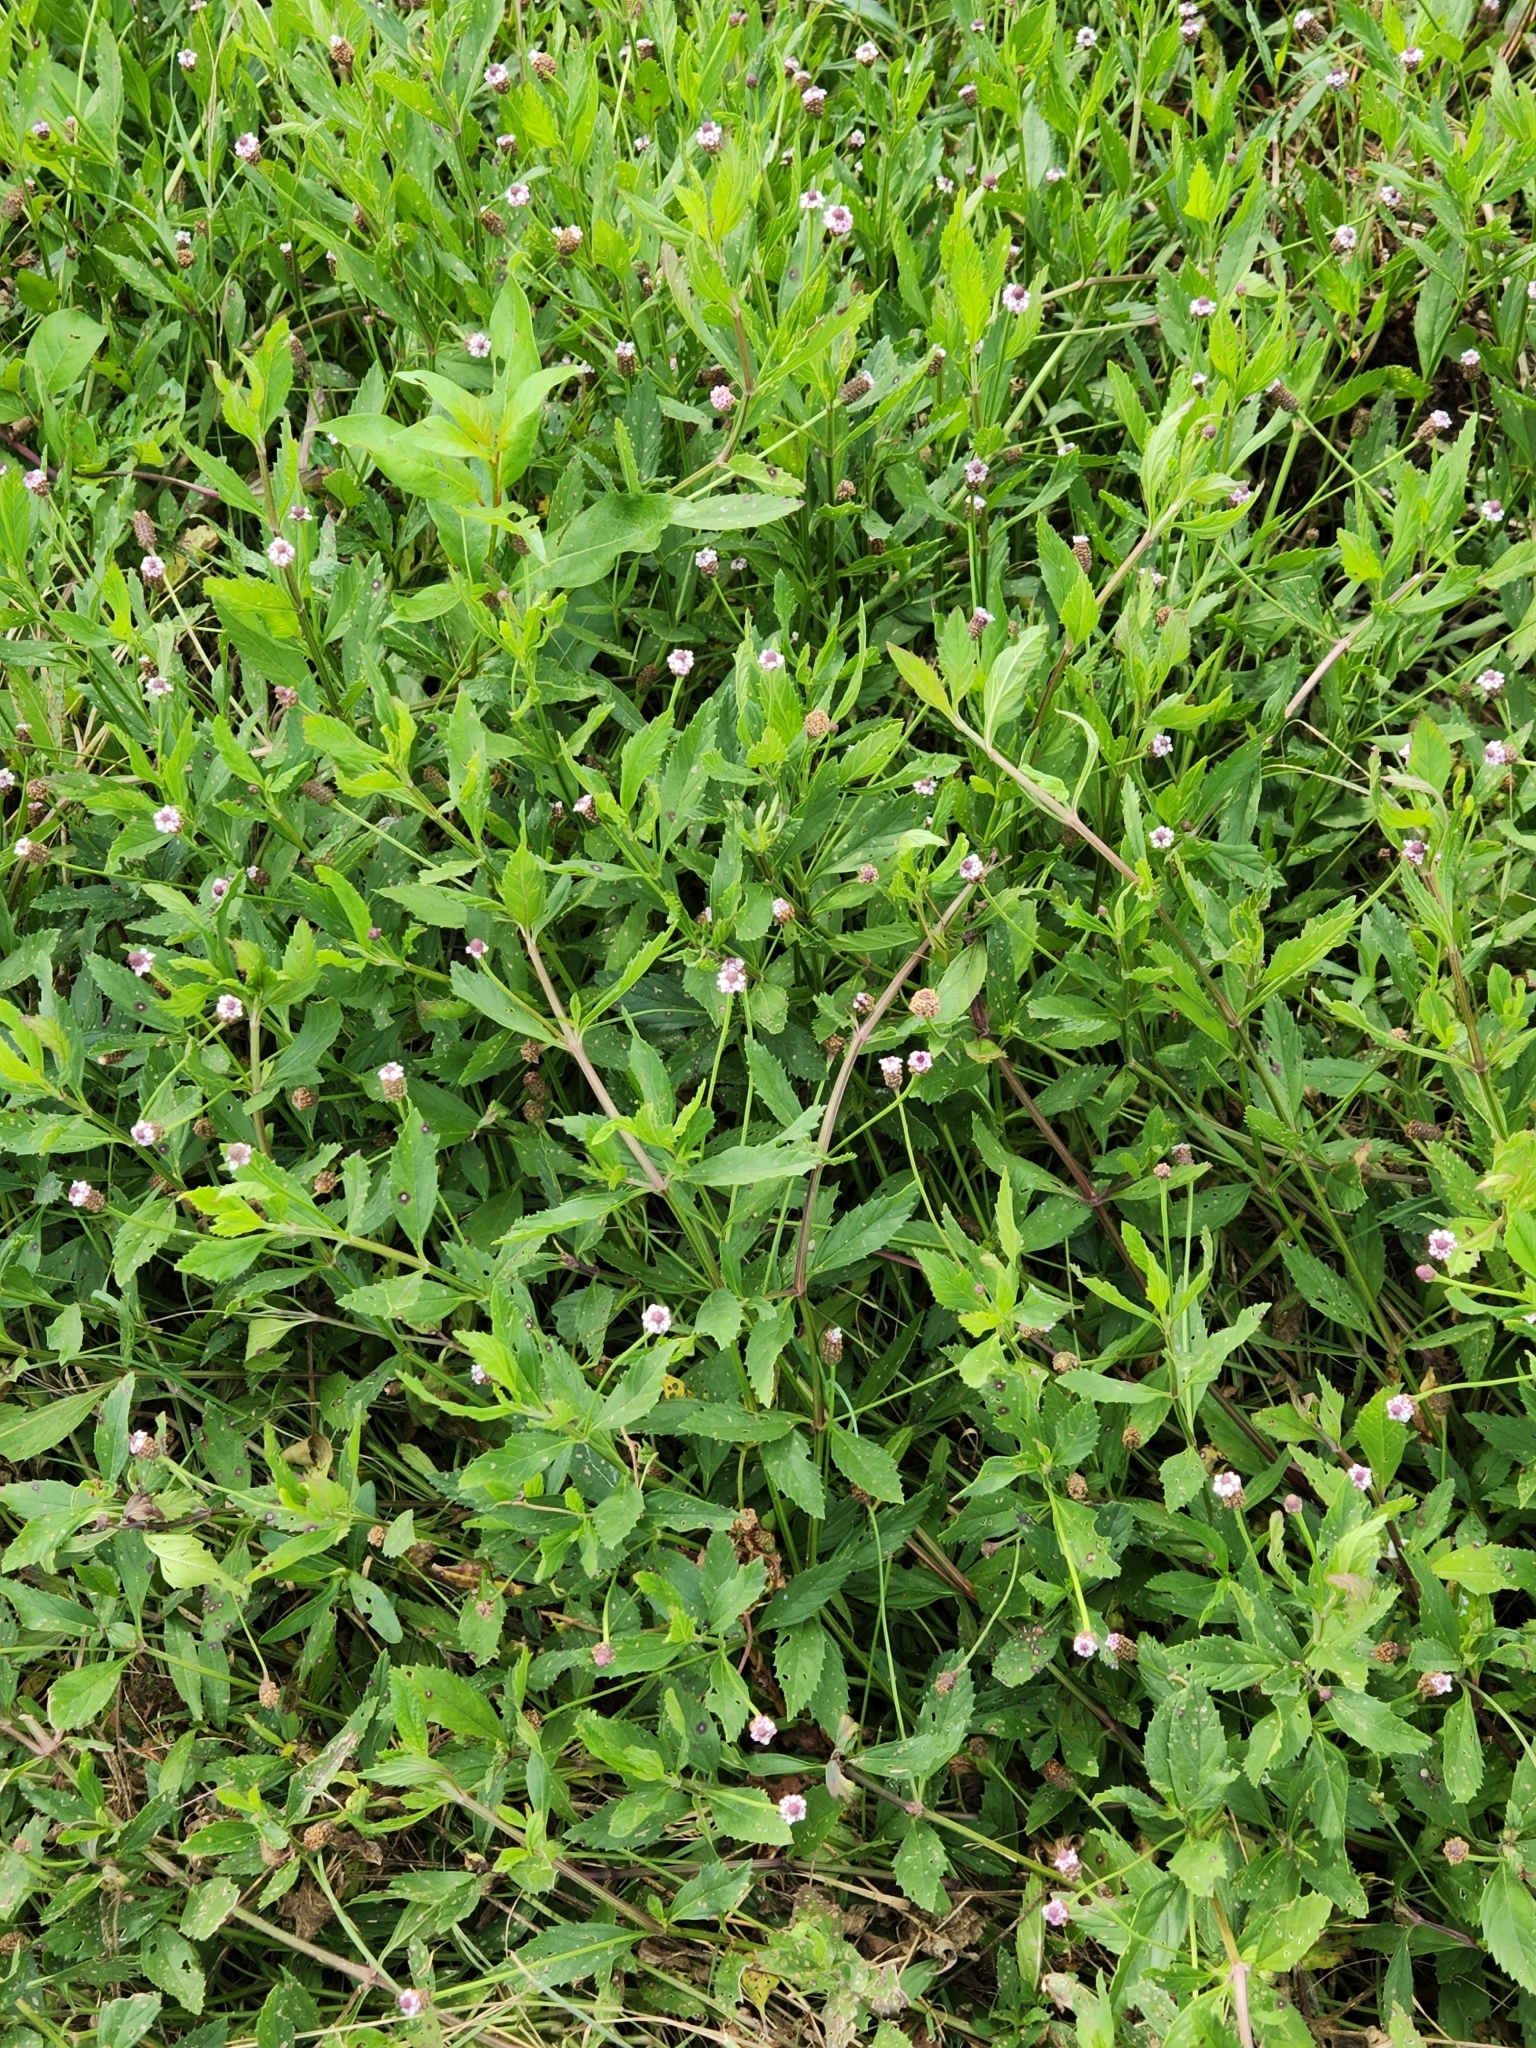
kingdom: Plantae
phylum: Tracheophyta
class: Magnoliopsida
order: Lamiales
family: Verbenaceae
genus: Phyla
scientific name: Phyla lanceolata
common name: Northern fogfruit
